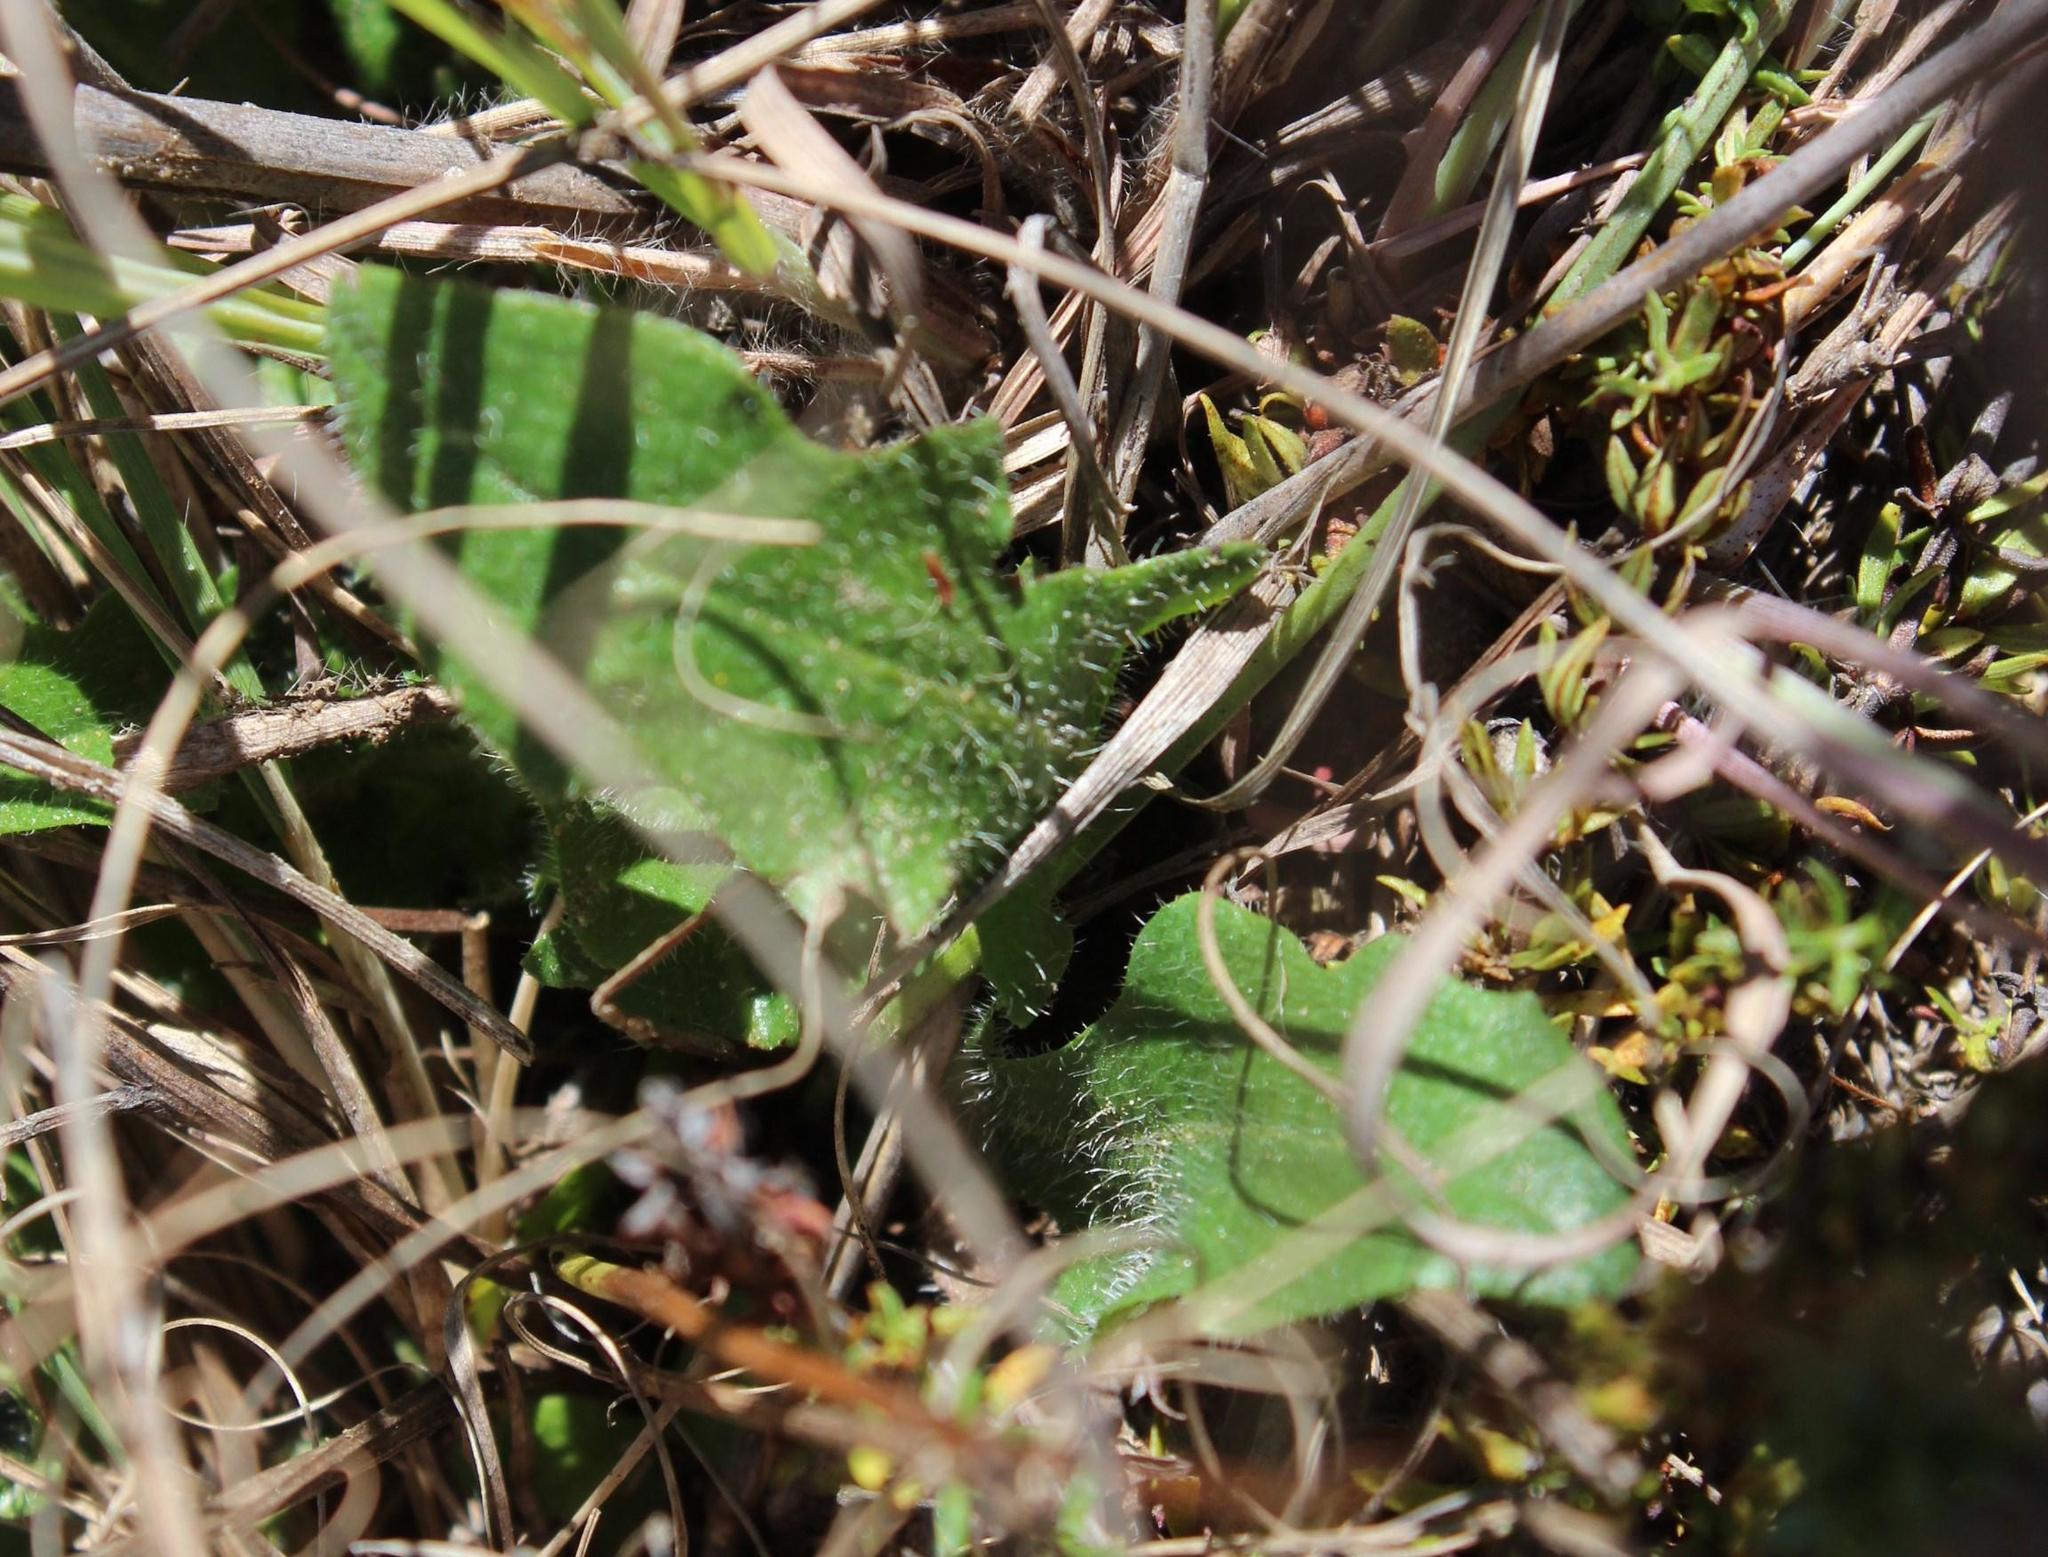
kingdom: Plantae
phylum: Tracheophyta
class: Magnoliopsida
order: Asterales
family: Asteraceae
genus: Hypochaeris
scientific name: Hypochaeris radicata
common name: Flatweed
